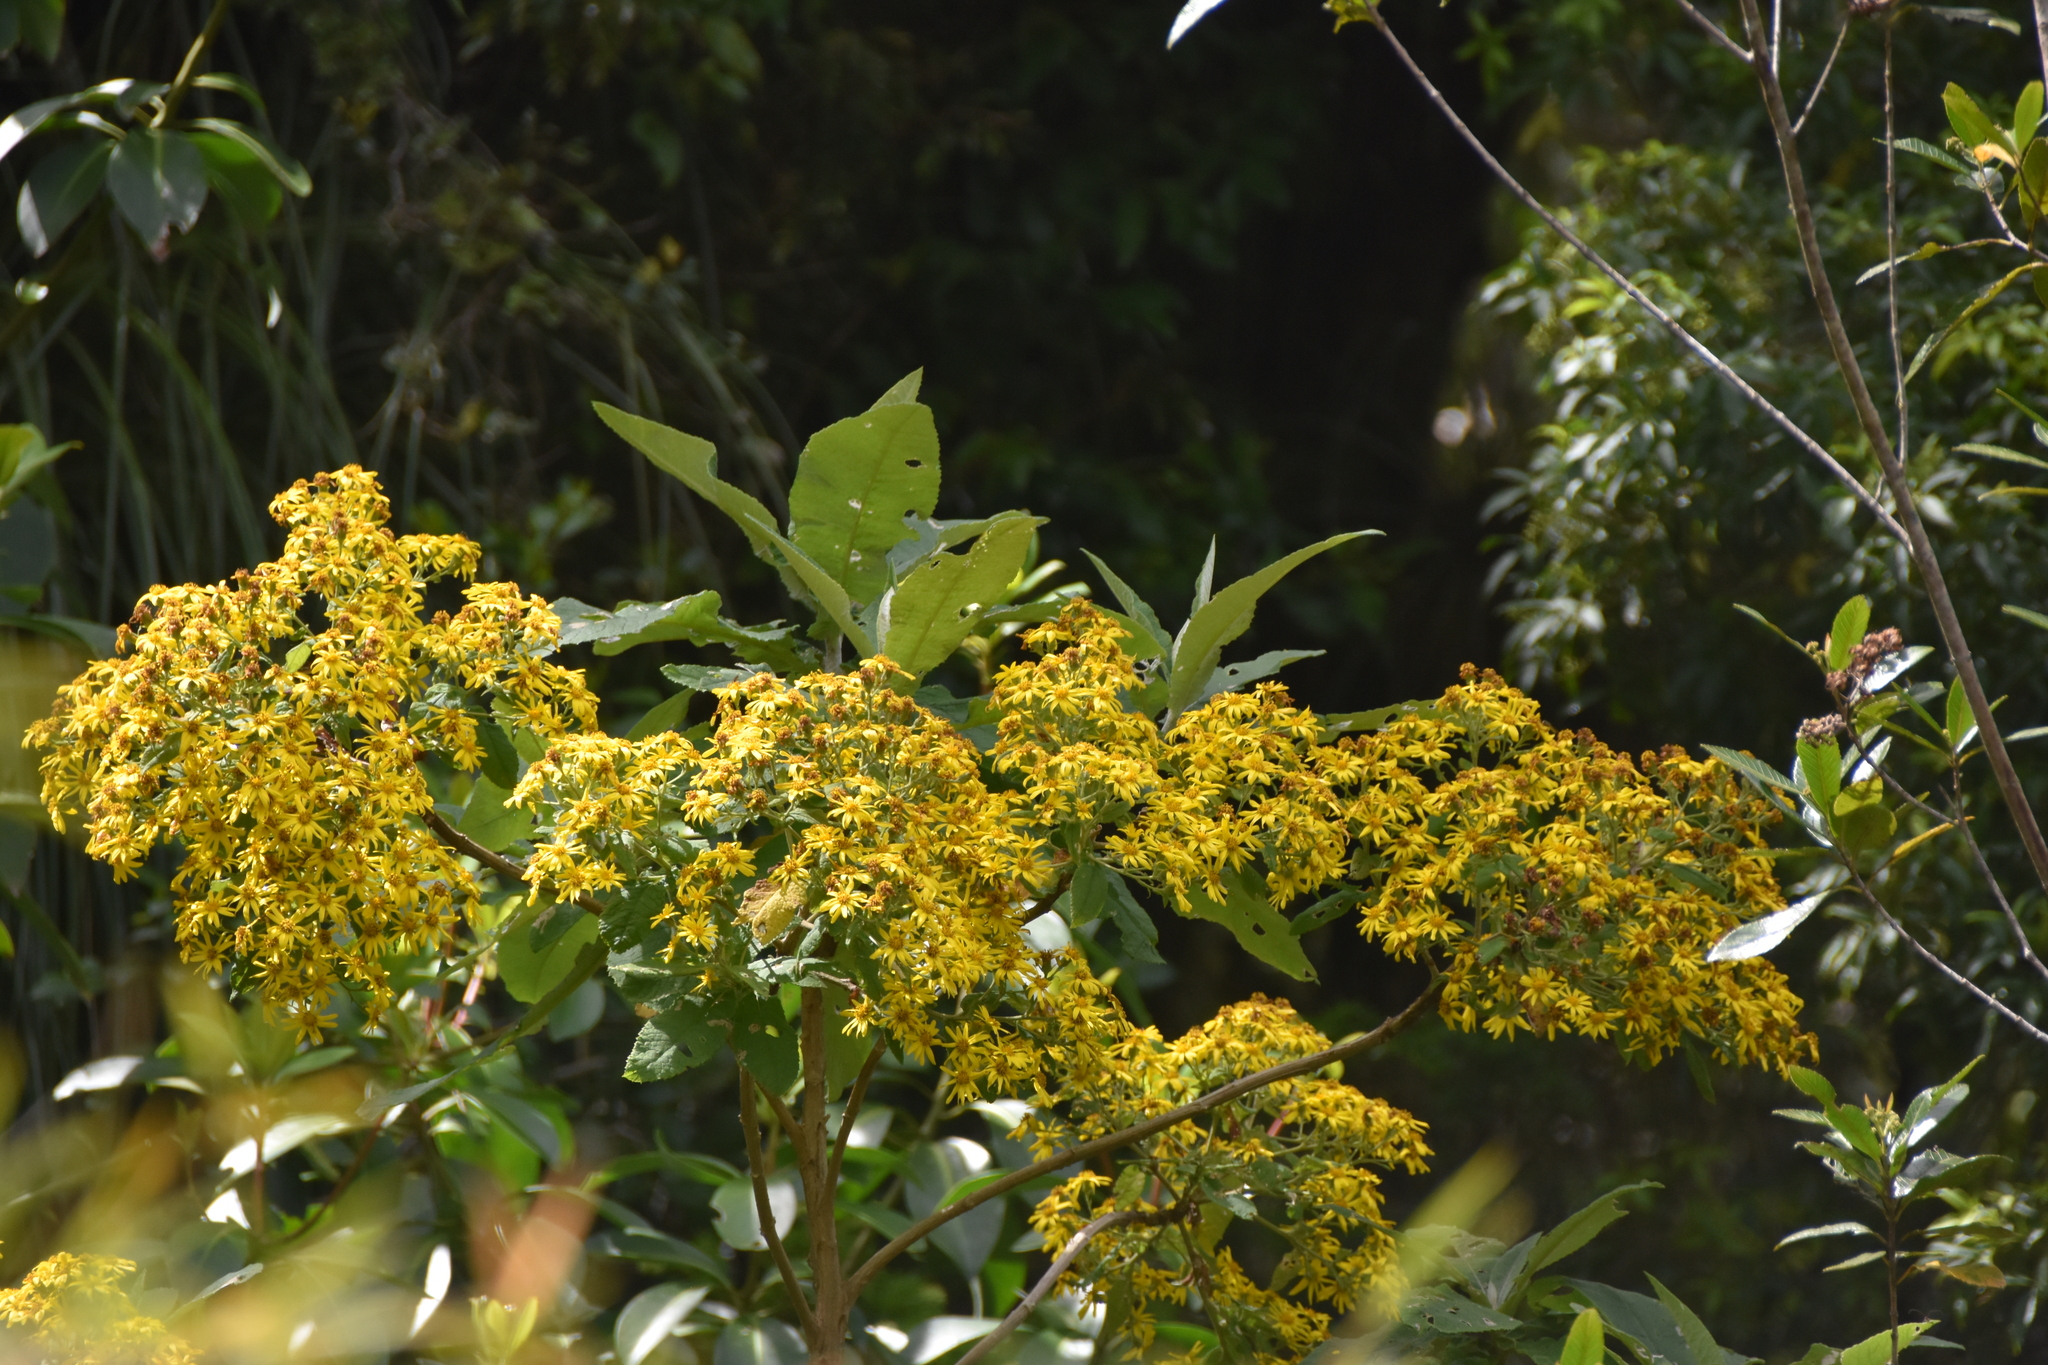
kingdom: Plantae
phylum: Tracheophyta
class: Magnoliopsida
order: Asterales
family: Asteraceae
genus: Acrisione
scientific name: Acrisione cymosa
